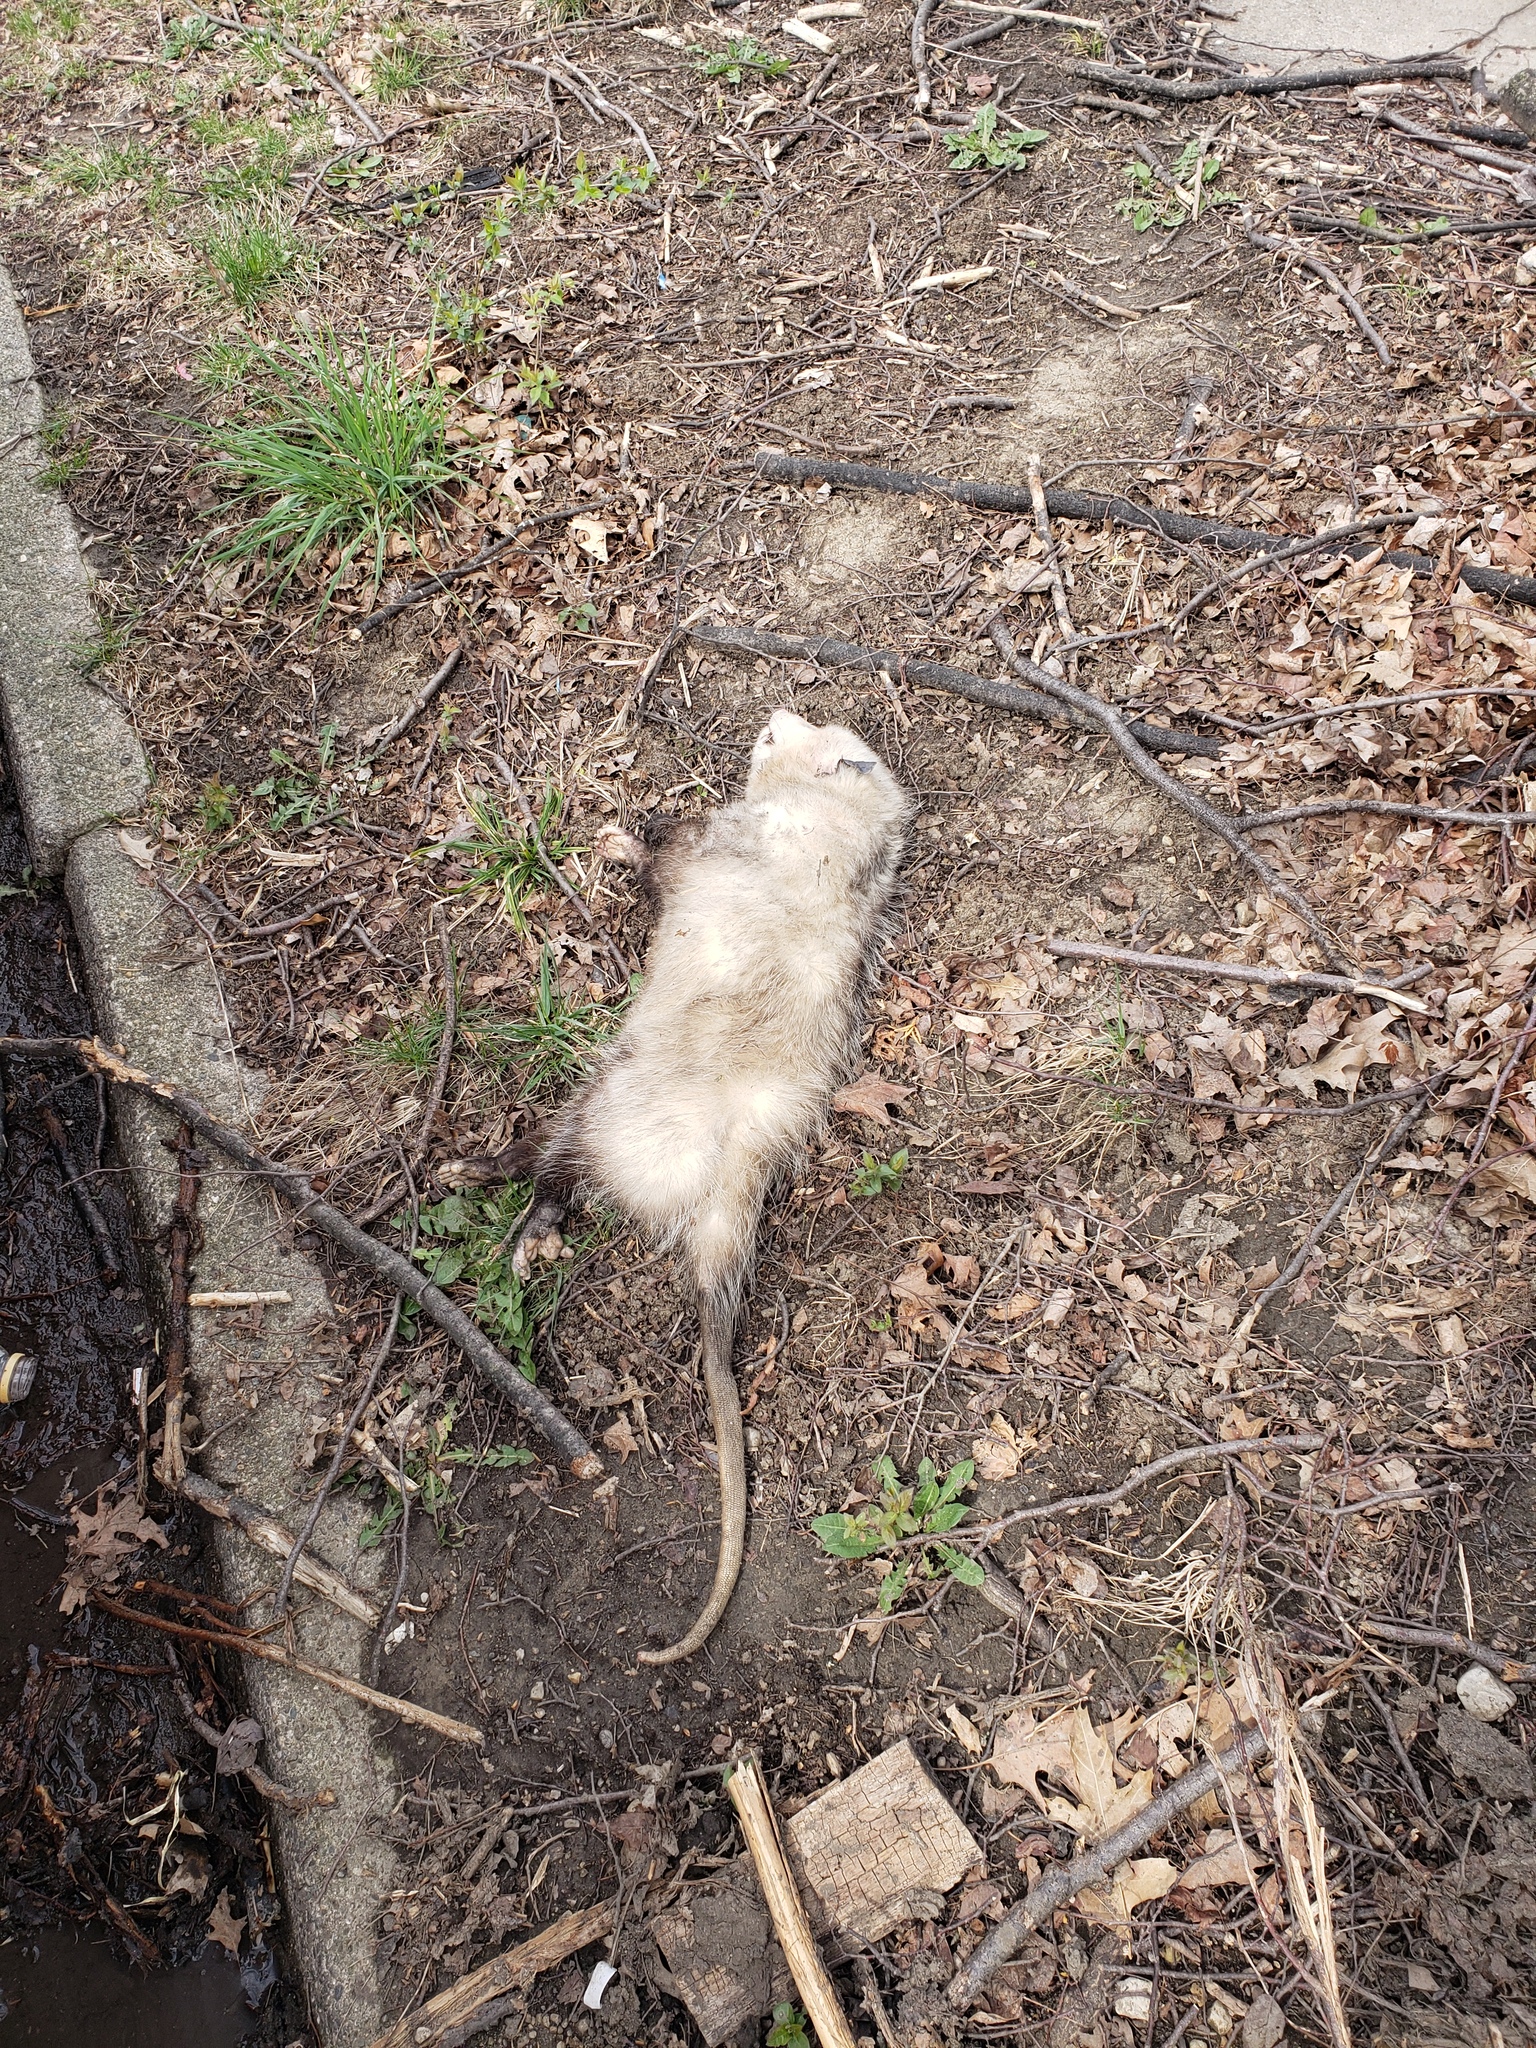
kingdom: Animalia
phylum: Chordata
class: Mammalia
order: Didelphimorphia
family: Didelphidae
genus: Didelphis
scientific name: Didelphis virginiana
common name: Virginia opossum
